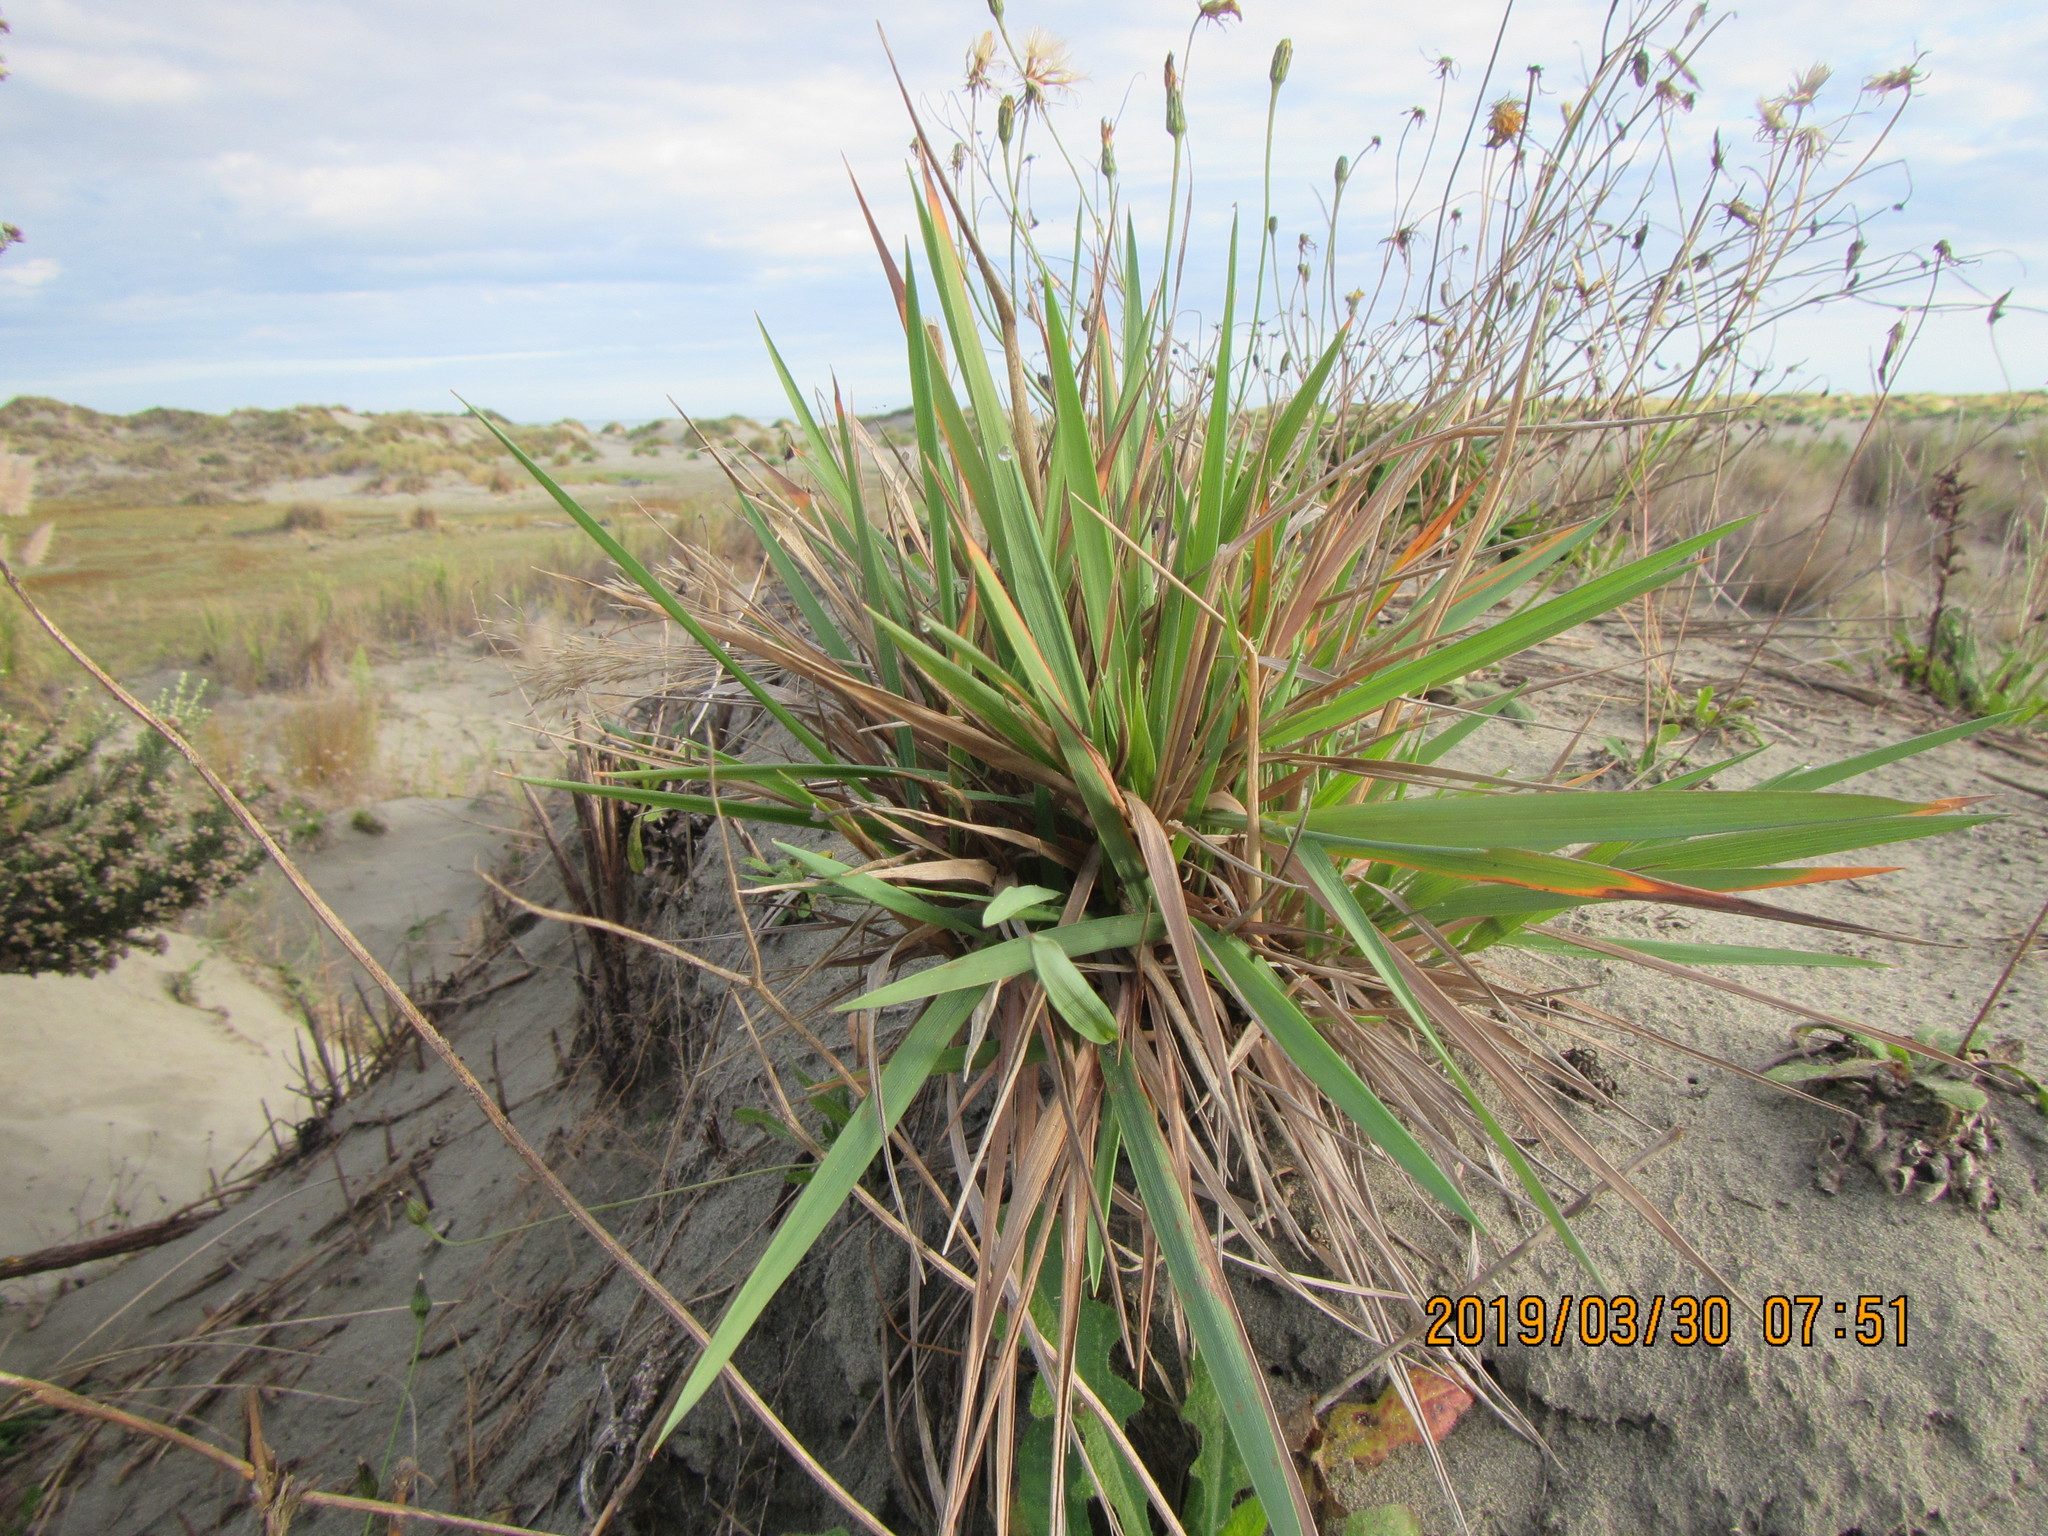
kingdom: Plantae
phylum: Tracheophyta
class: Liliopsida
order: Poales
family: Poaceae
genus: Lachnagrostis
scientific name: Lachnagrostis billardierei
